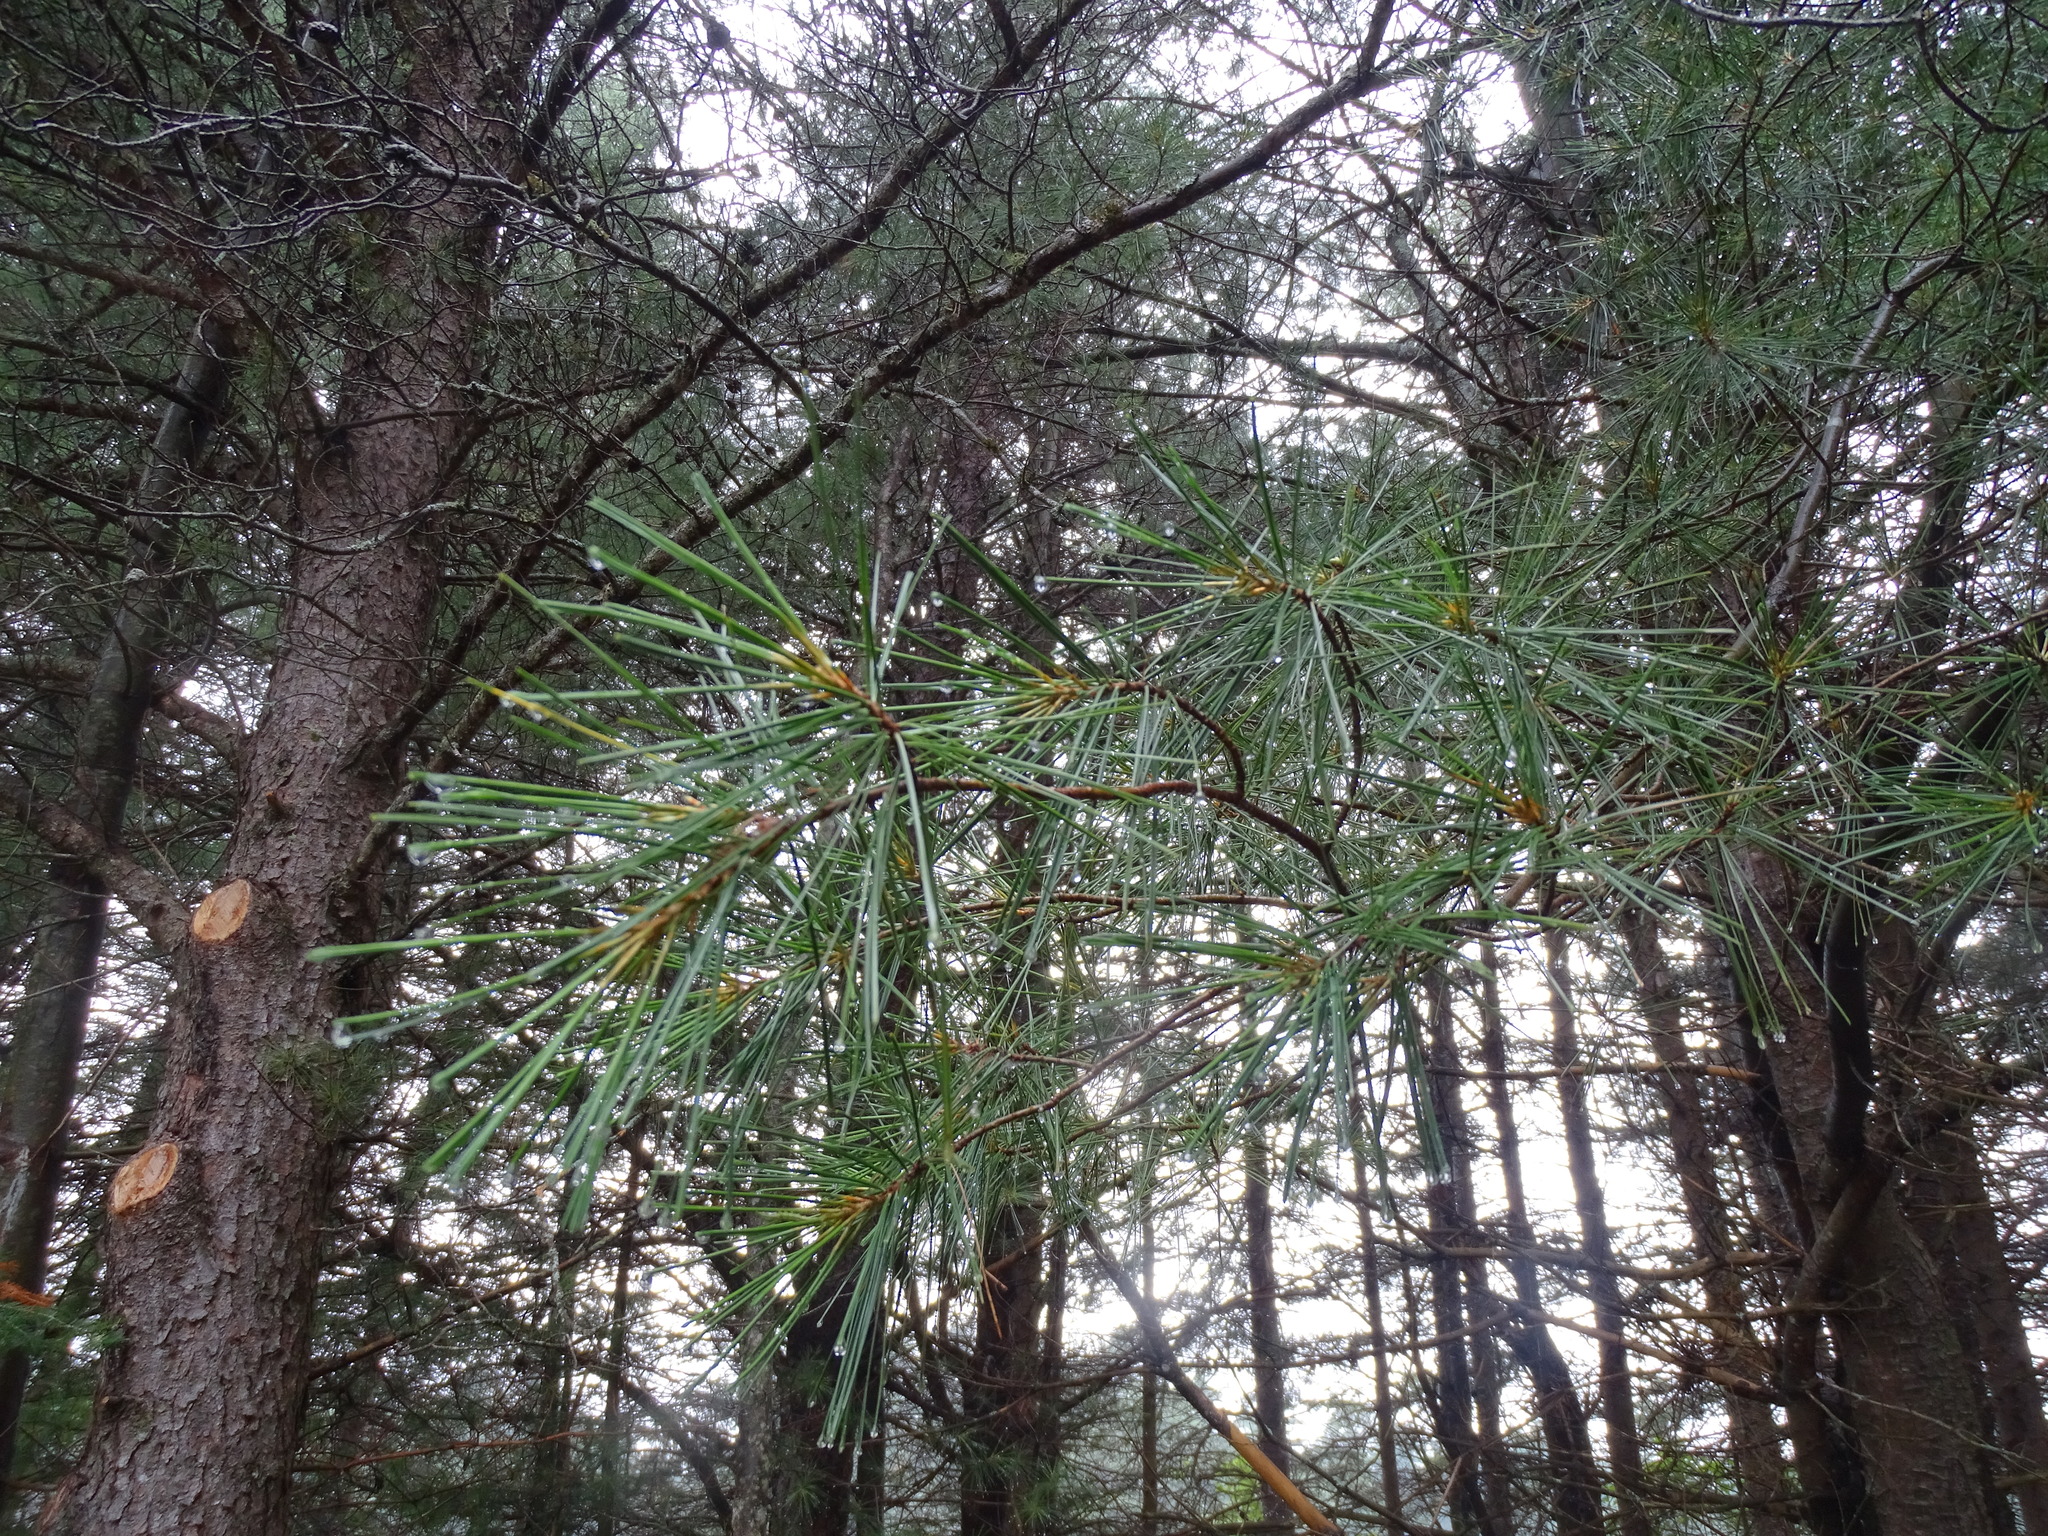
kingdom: Plantae
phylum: Tracheophyta
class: Pinopsida
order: Pinales
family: Pinaceae
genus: Pinus
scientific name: Pinus strobus
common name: Weymouth pine
